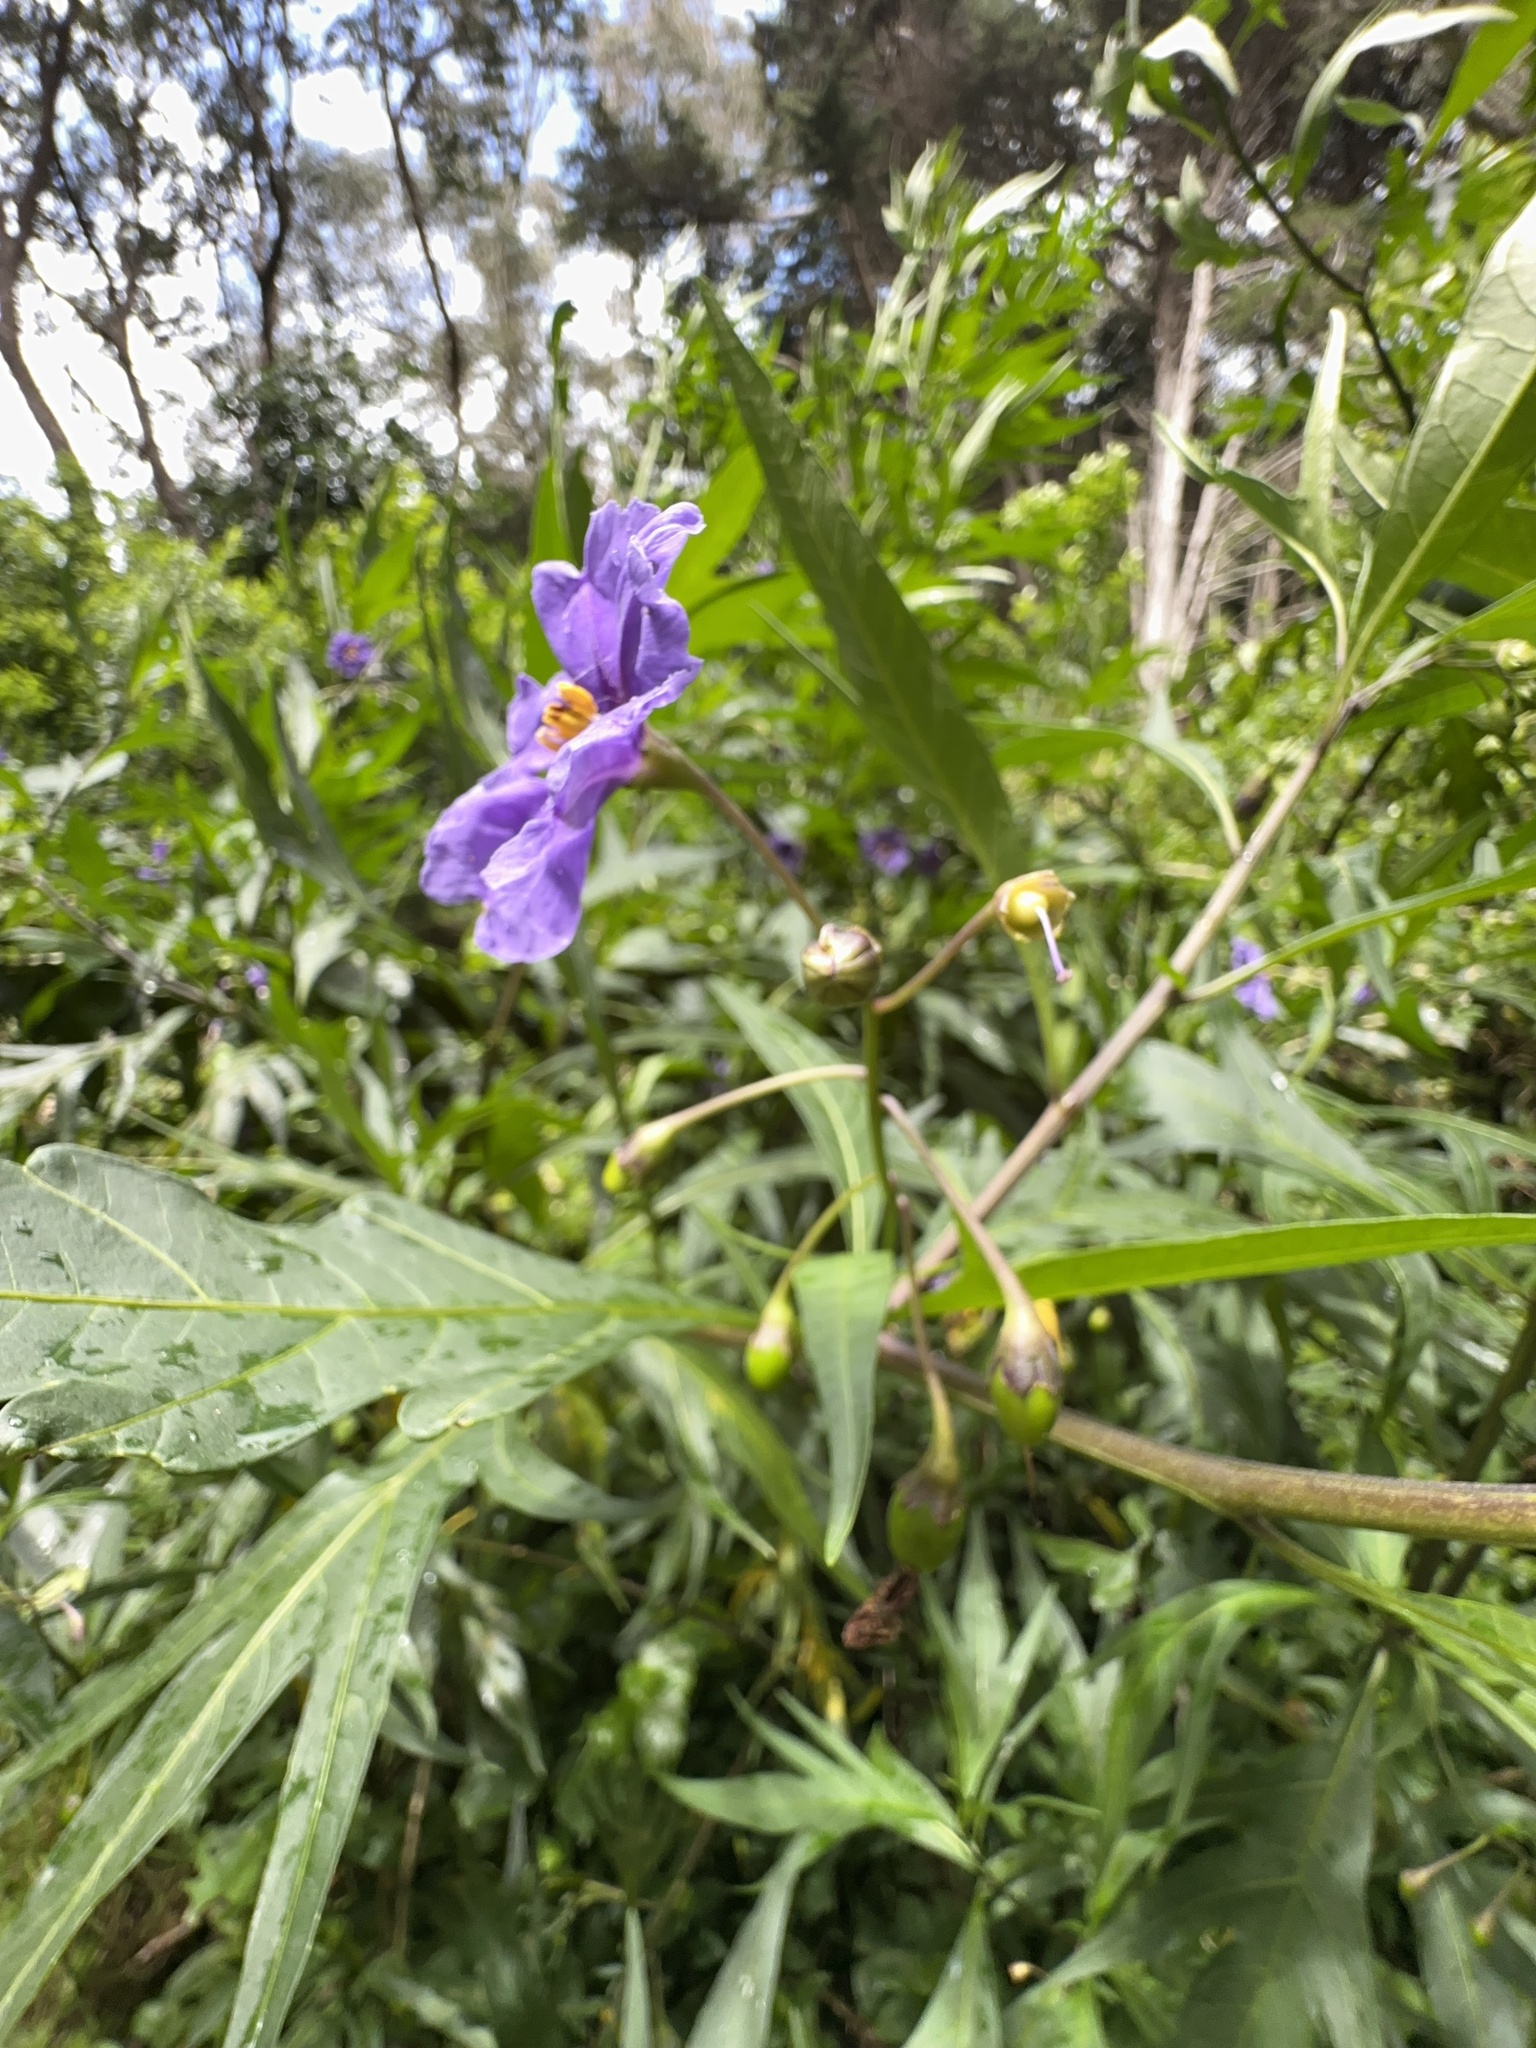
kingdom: Plantae
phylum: Tracheophyta
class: Magnoliopsida
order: Solanales
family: Solanaceae
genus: Solanum
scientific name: Solanum laciniatum
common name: Kangaroo-apple
